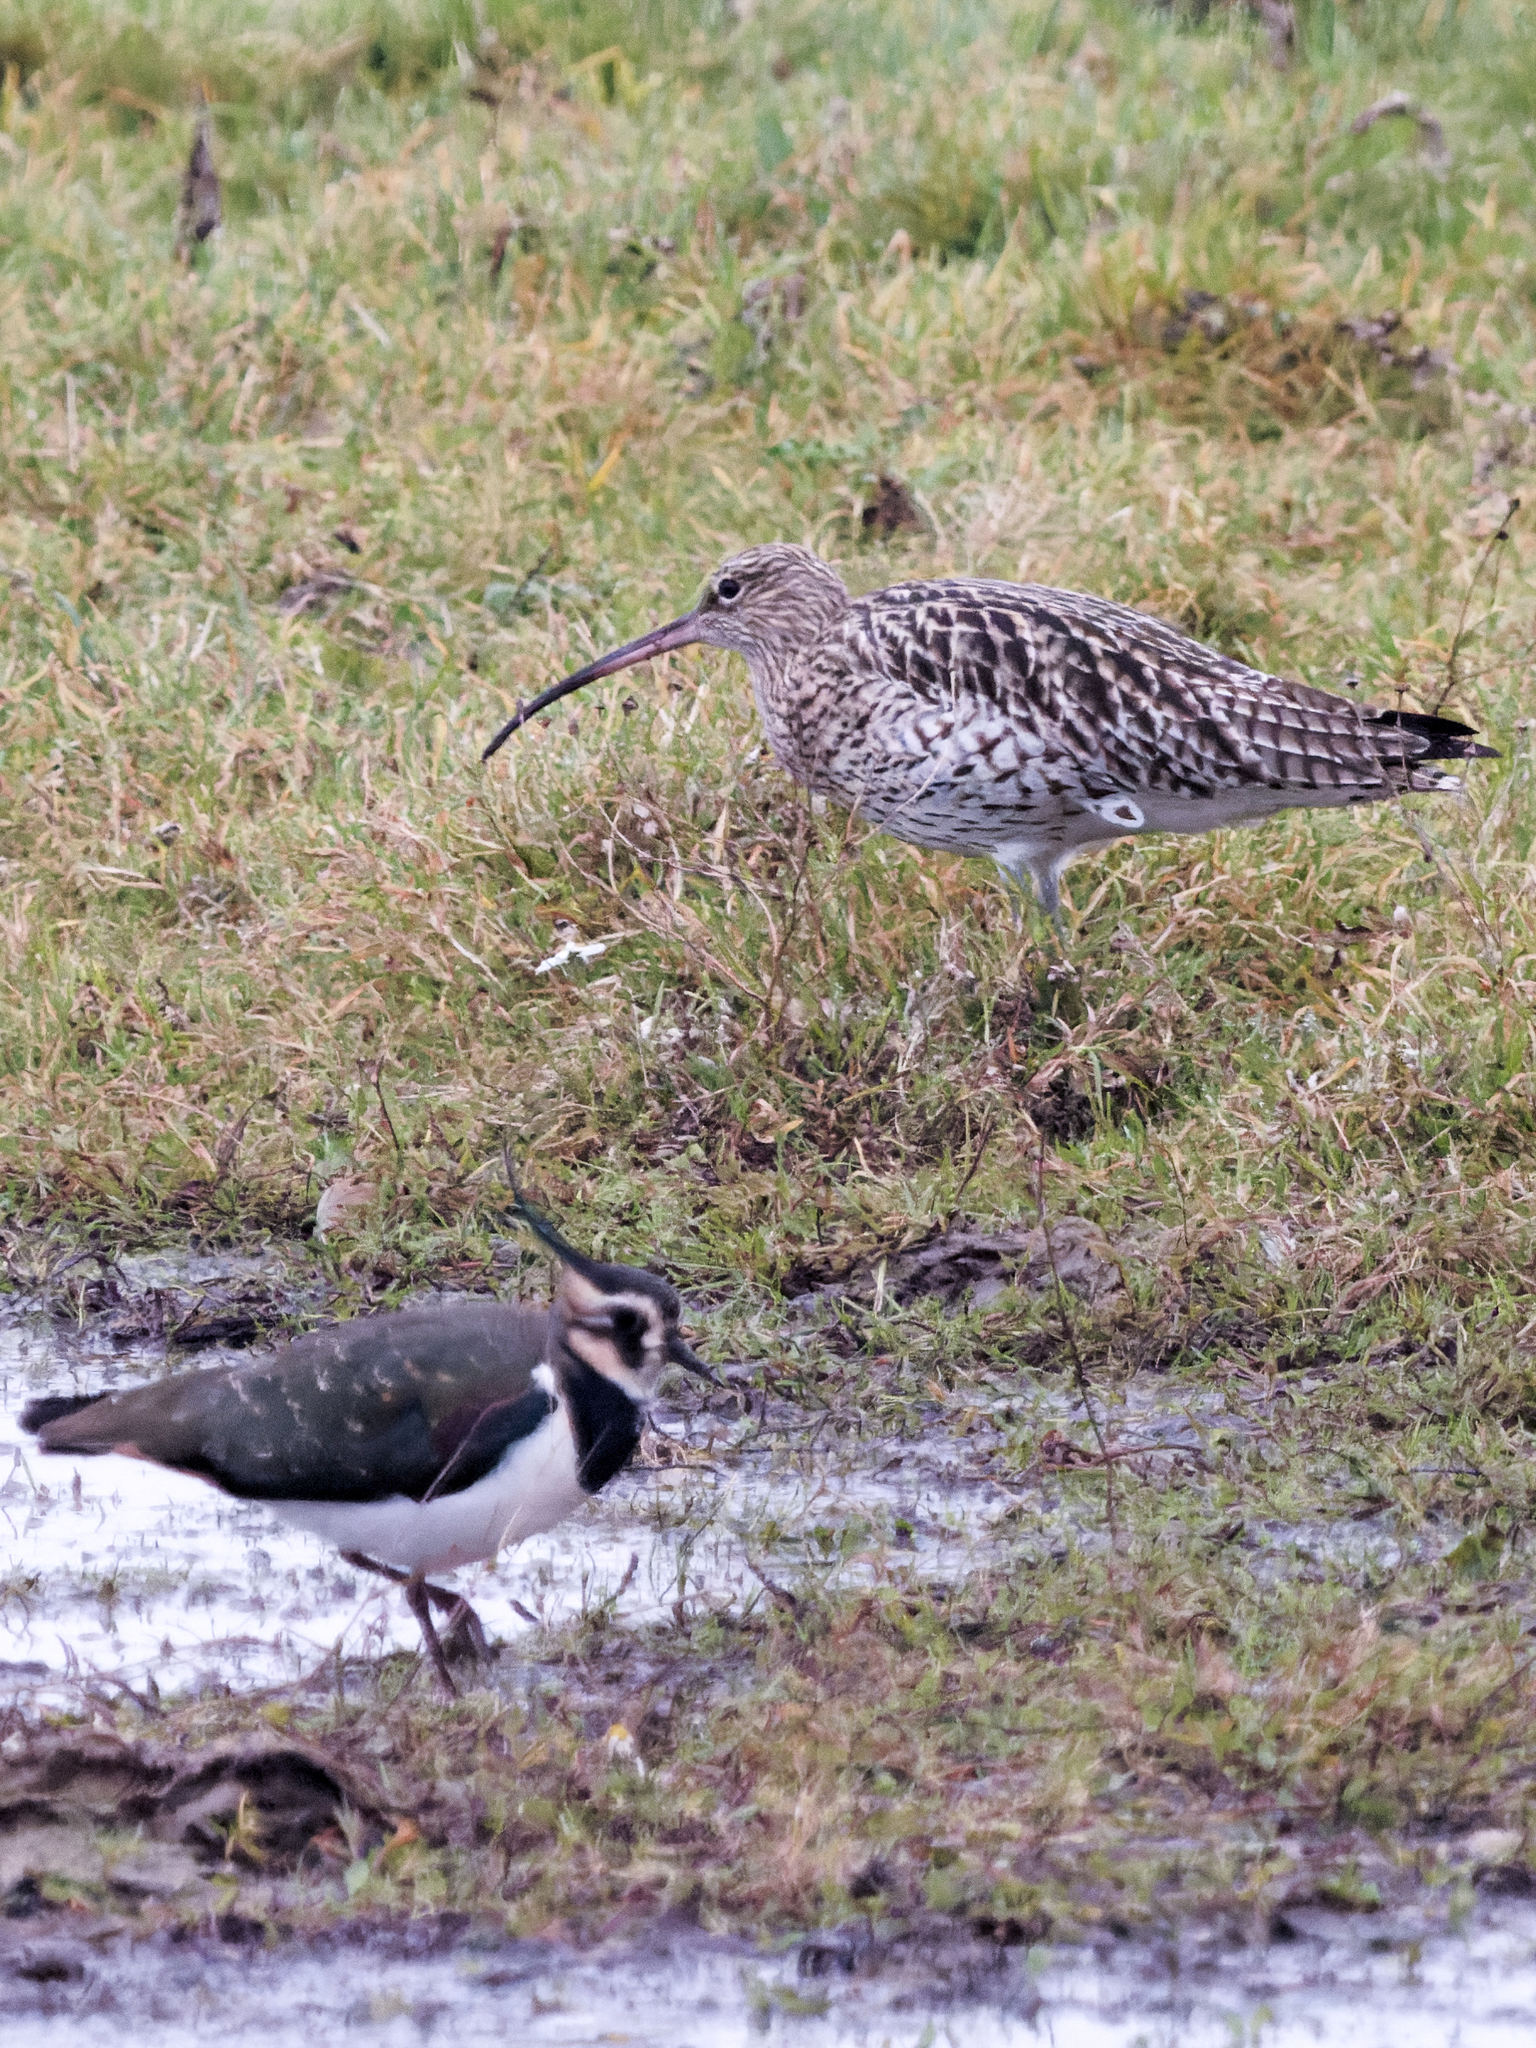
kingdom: Animalia
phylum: Chordata
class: Aves
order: Charadriiformes
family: Charadriidae
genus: Vanellus
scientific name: Vanellus vanellus
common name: Northern lapwing
